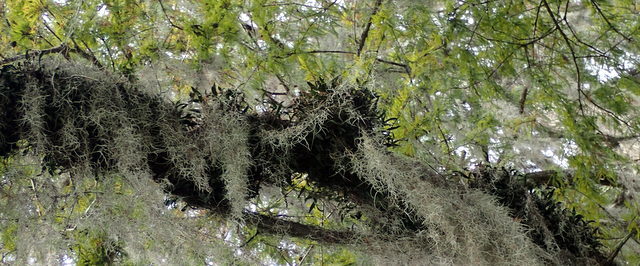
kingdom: Plantae
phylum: Tracheophyta
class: Liliopsida
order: Asparagales
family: Orchidaceae
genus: Epidendrum
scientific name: Epidendrum conopseum
